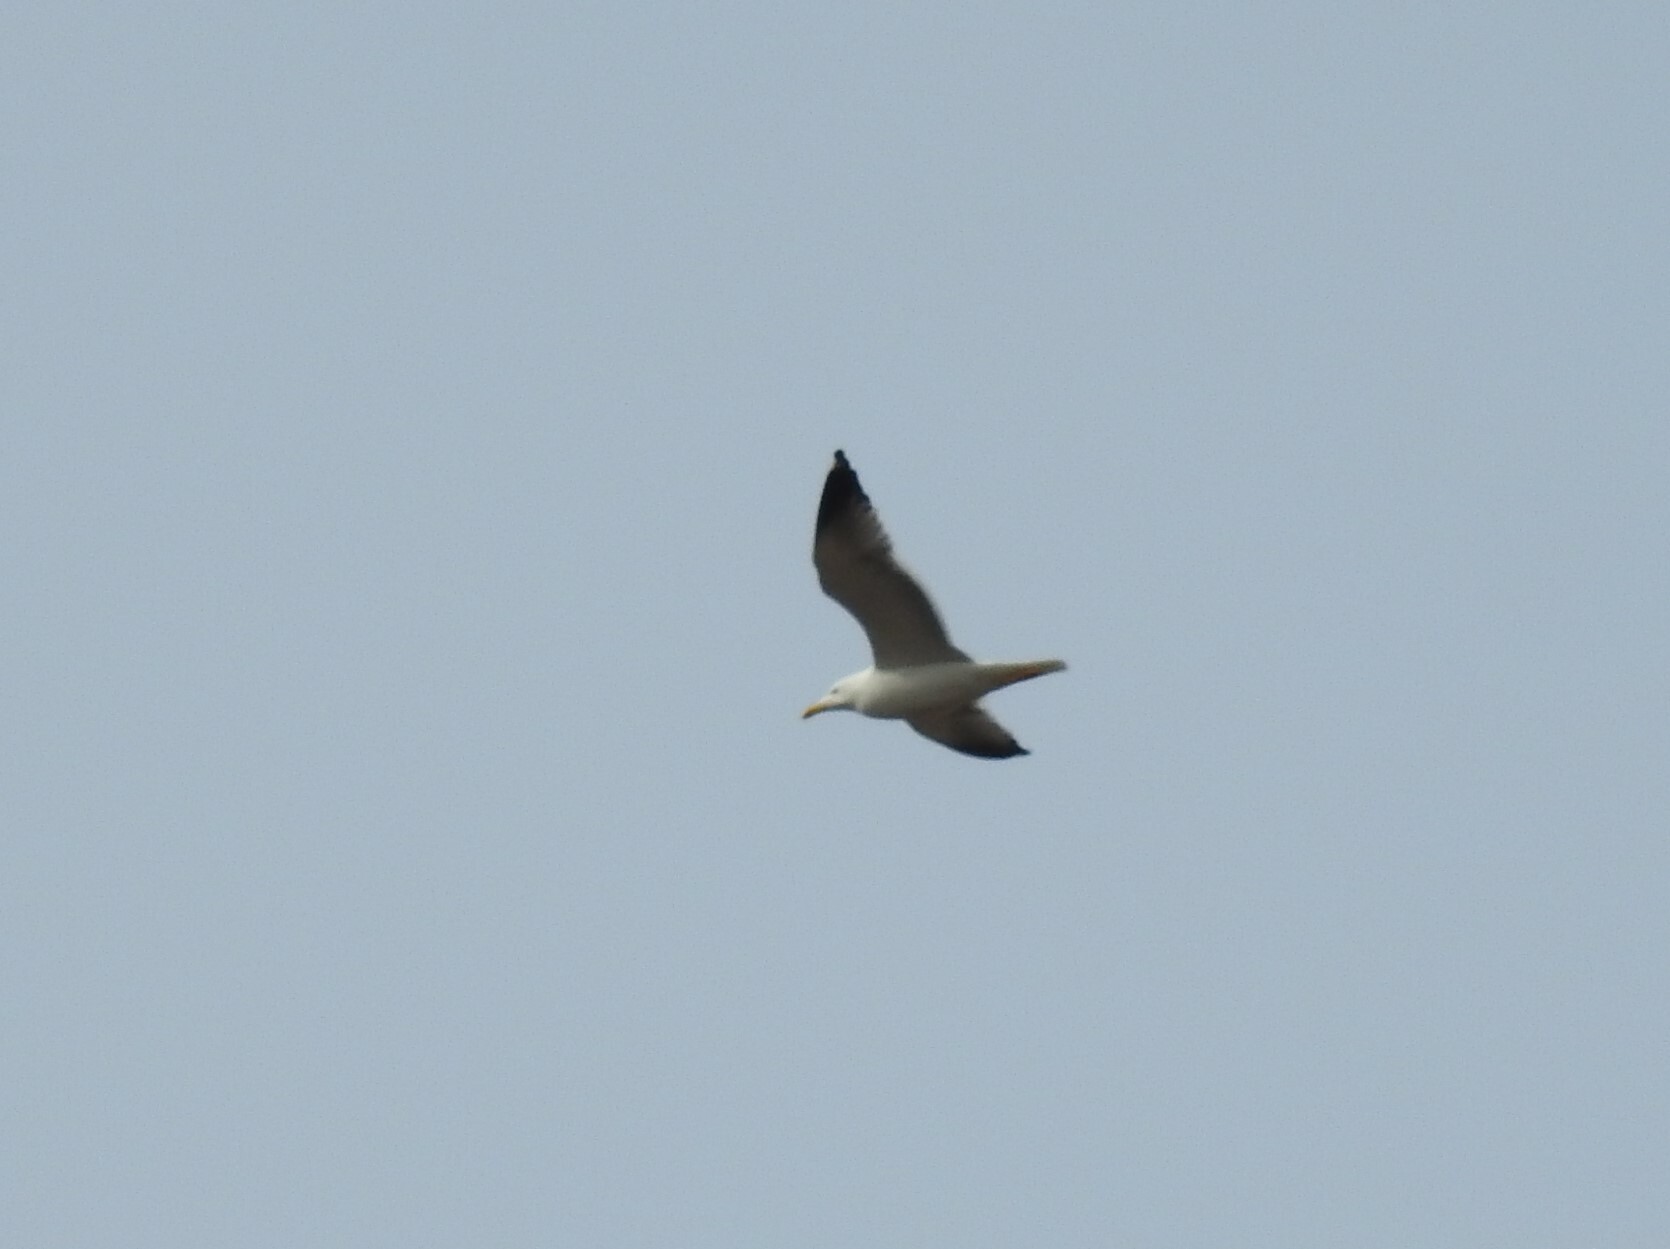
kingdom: Animalia
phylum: Chordata
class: Aves
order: Charadriiformes
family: Laridae
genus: Larus
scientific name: Larus fuscus
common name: Lesser black-backed gull
